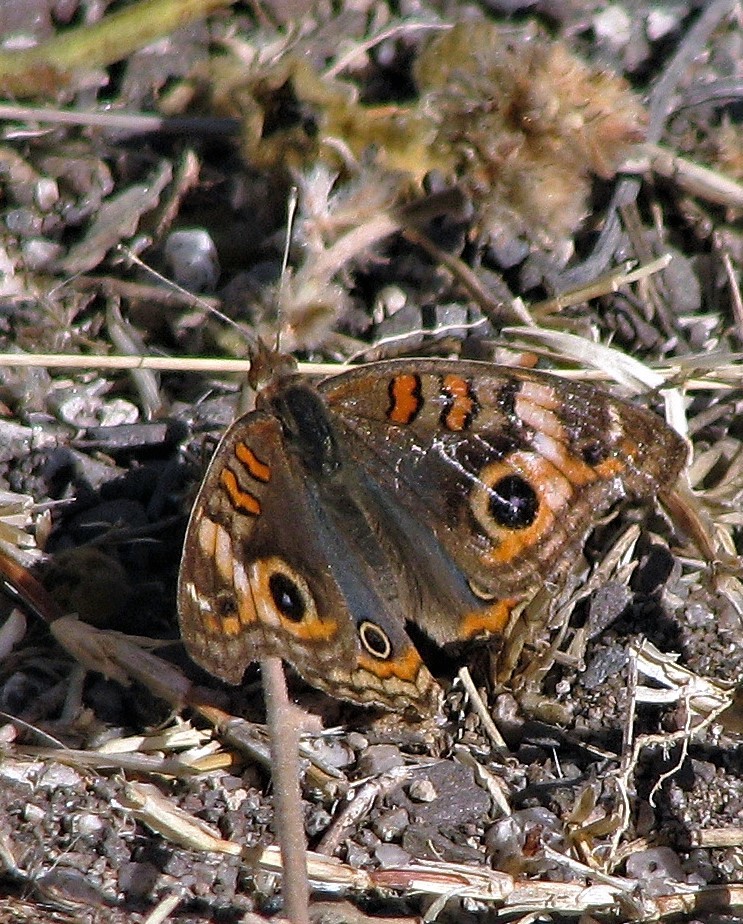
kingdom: Animalia
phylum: Arthropoda
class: Insecta
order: Lepidoptera
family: Nymphalidae
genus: Junonia
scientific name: Junonia lavinia
